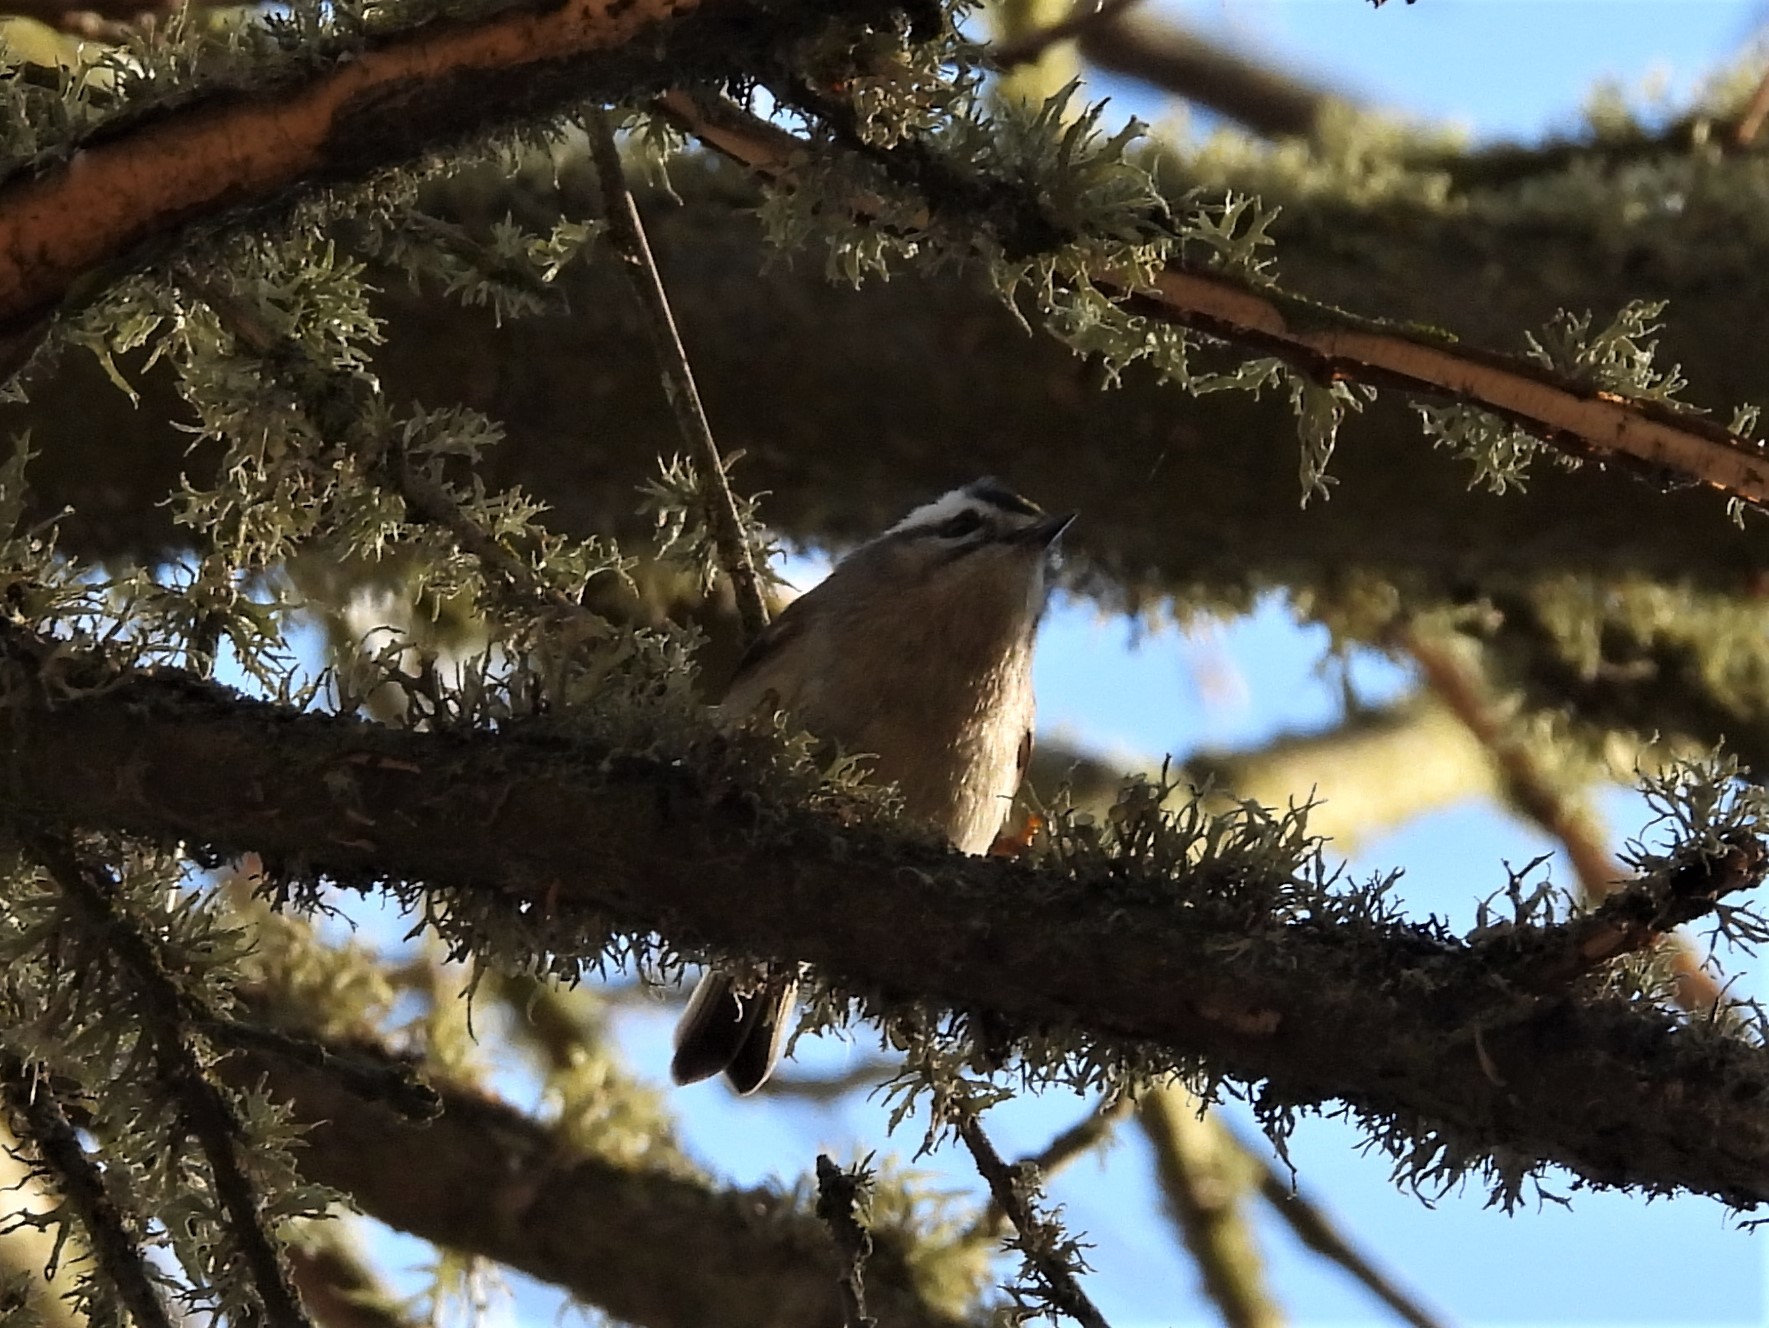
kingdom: Animalia
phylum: Chordata
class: Aves
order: Passeriformes
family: Regulidae
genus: Regulus
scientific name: Regulus satrapa
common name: Golden-crowned kinglet
